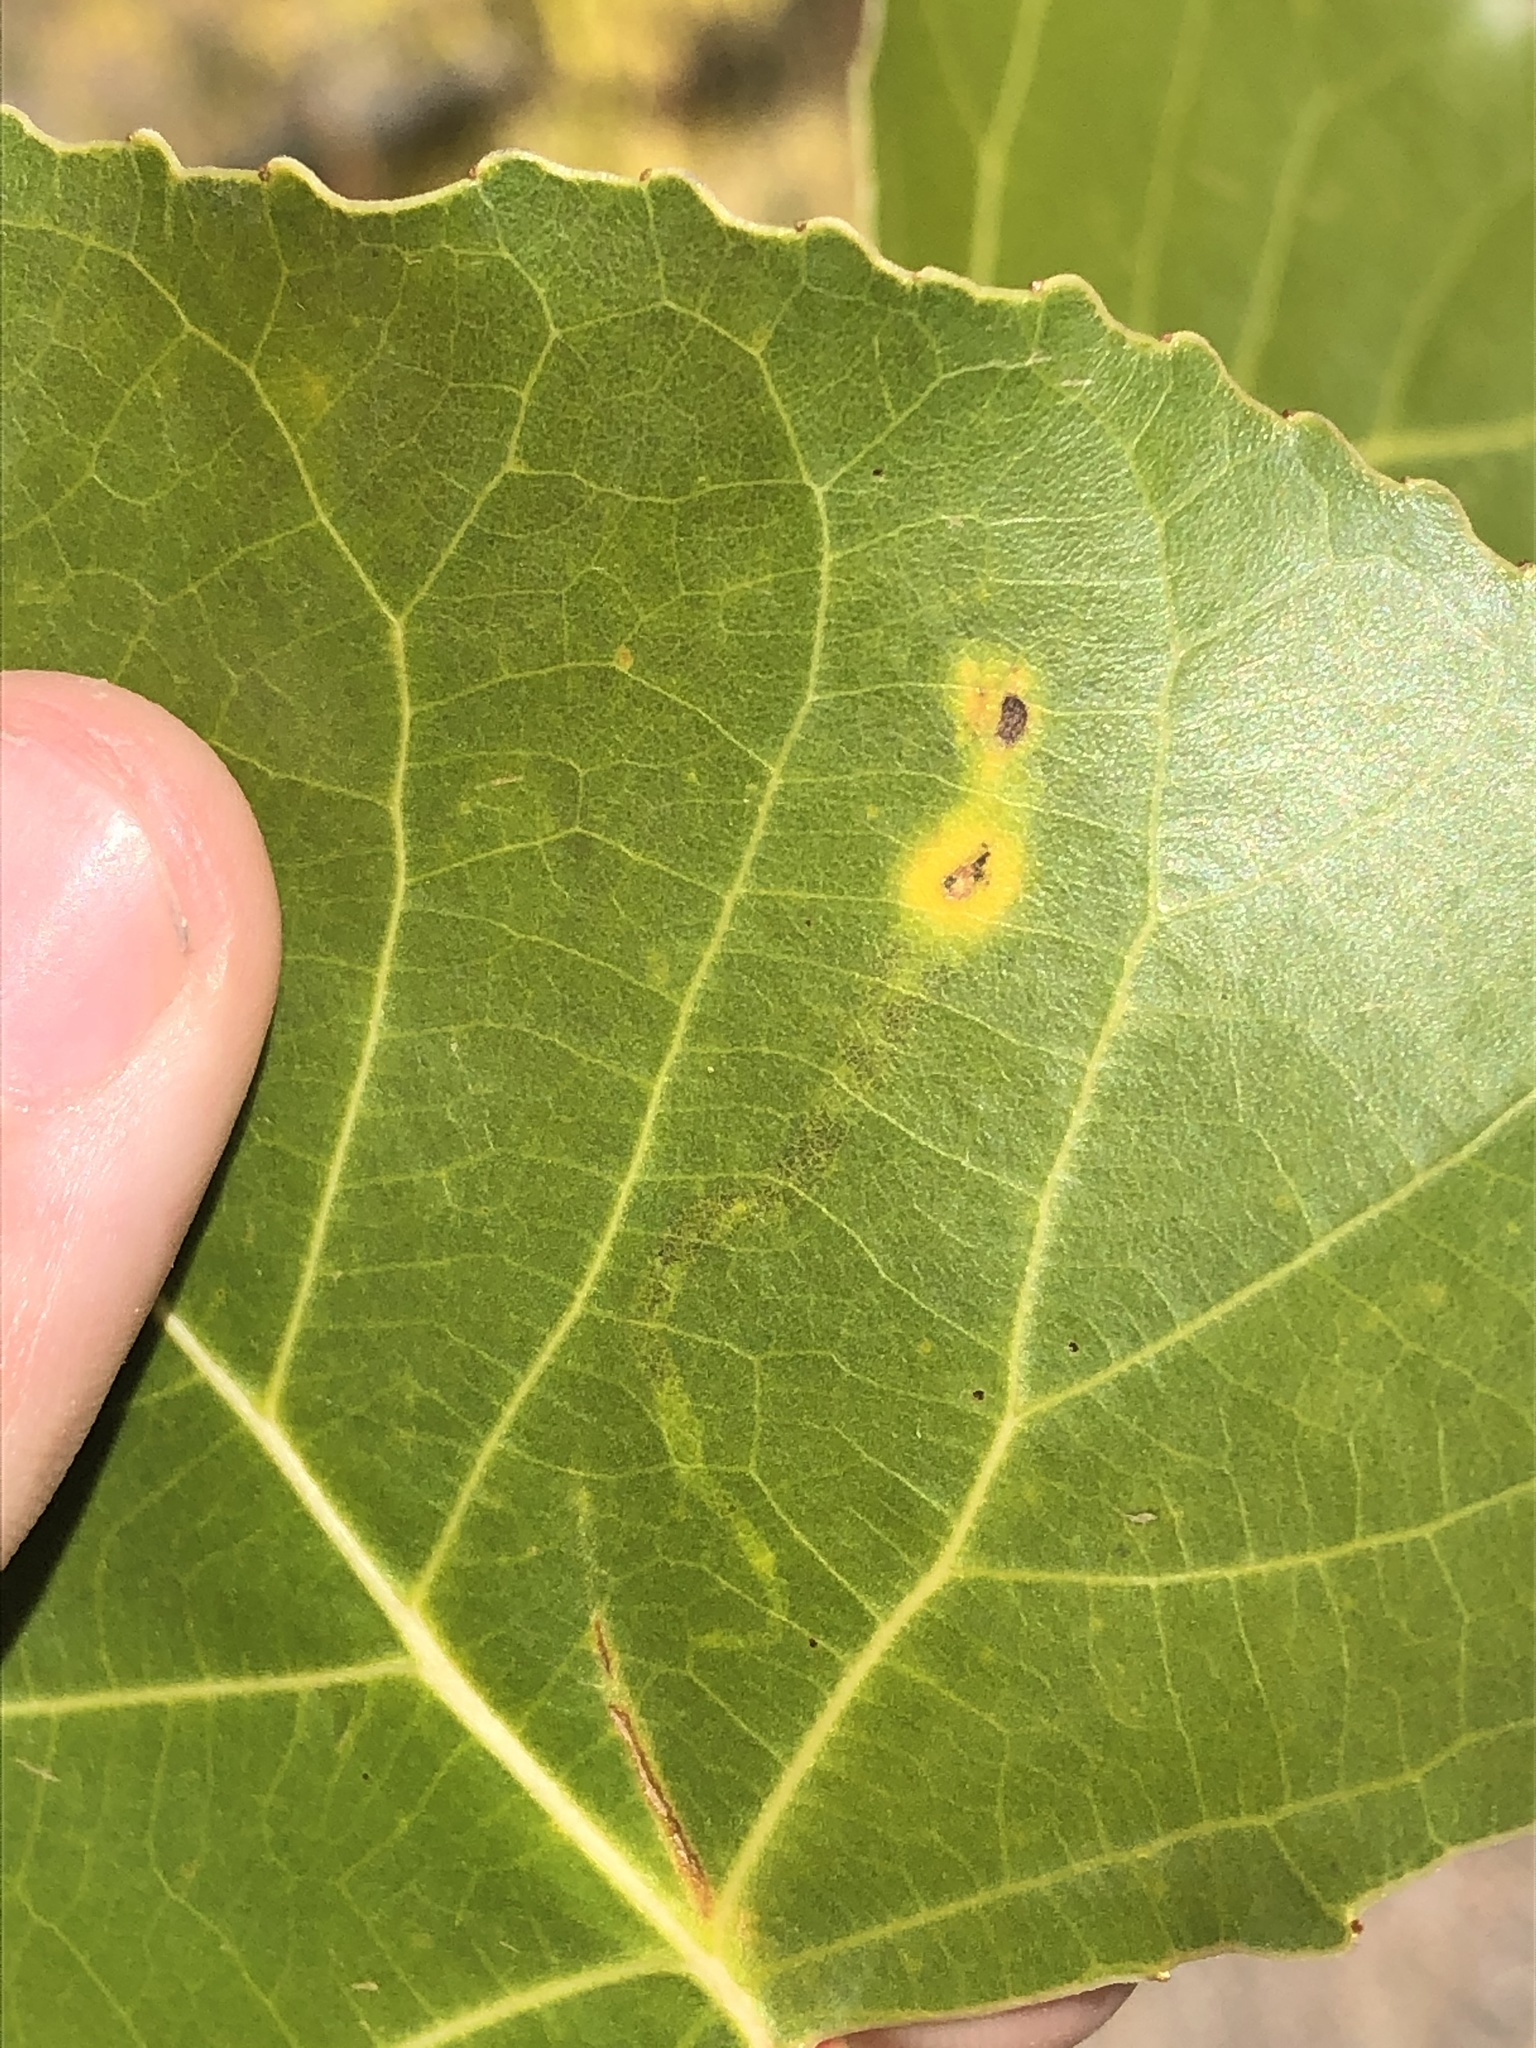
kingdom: Animalia
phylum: Arthropoda
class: Insecta
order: Diptera
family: Agromyzidae
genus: Aulagromyza
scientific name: Aulagromyza populicola
